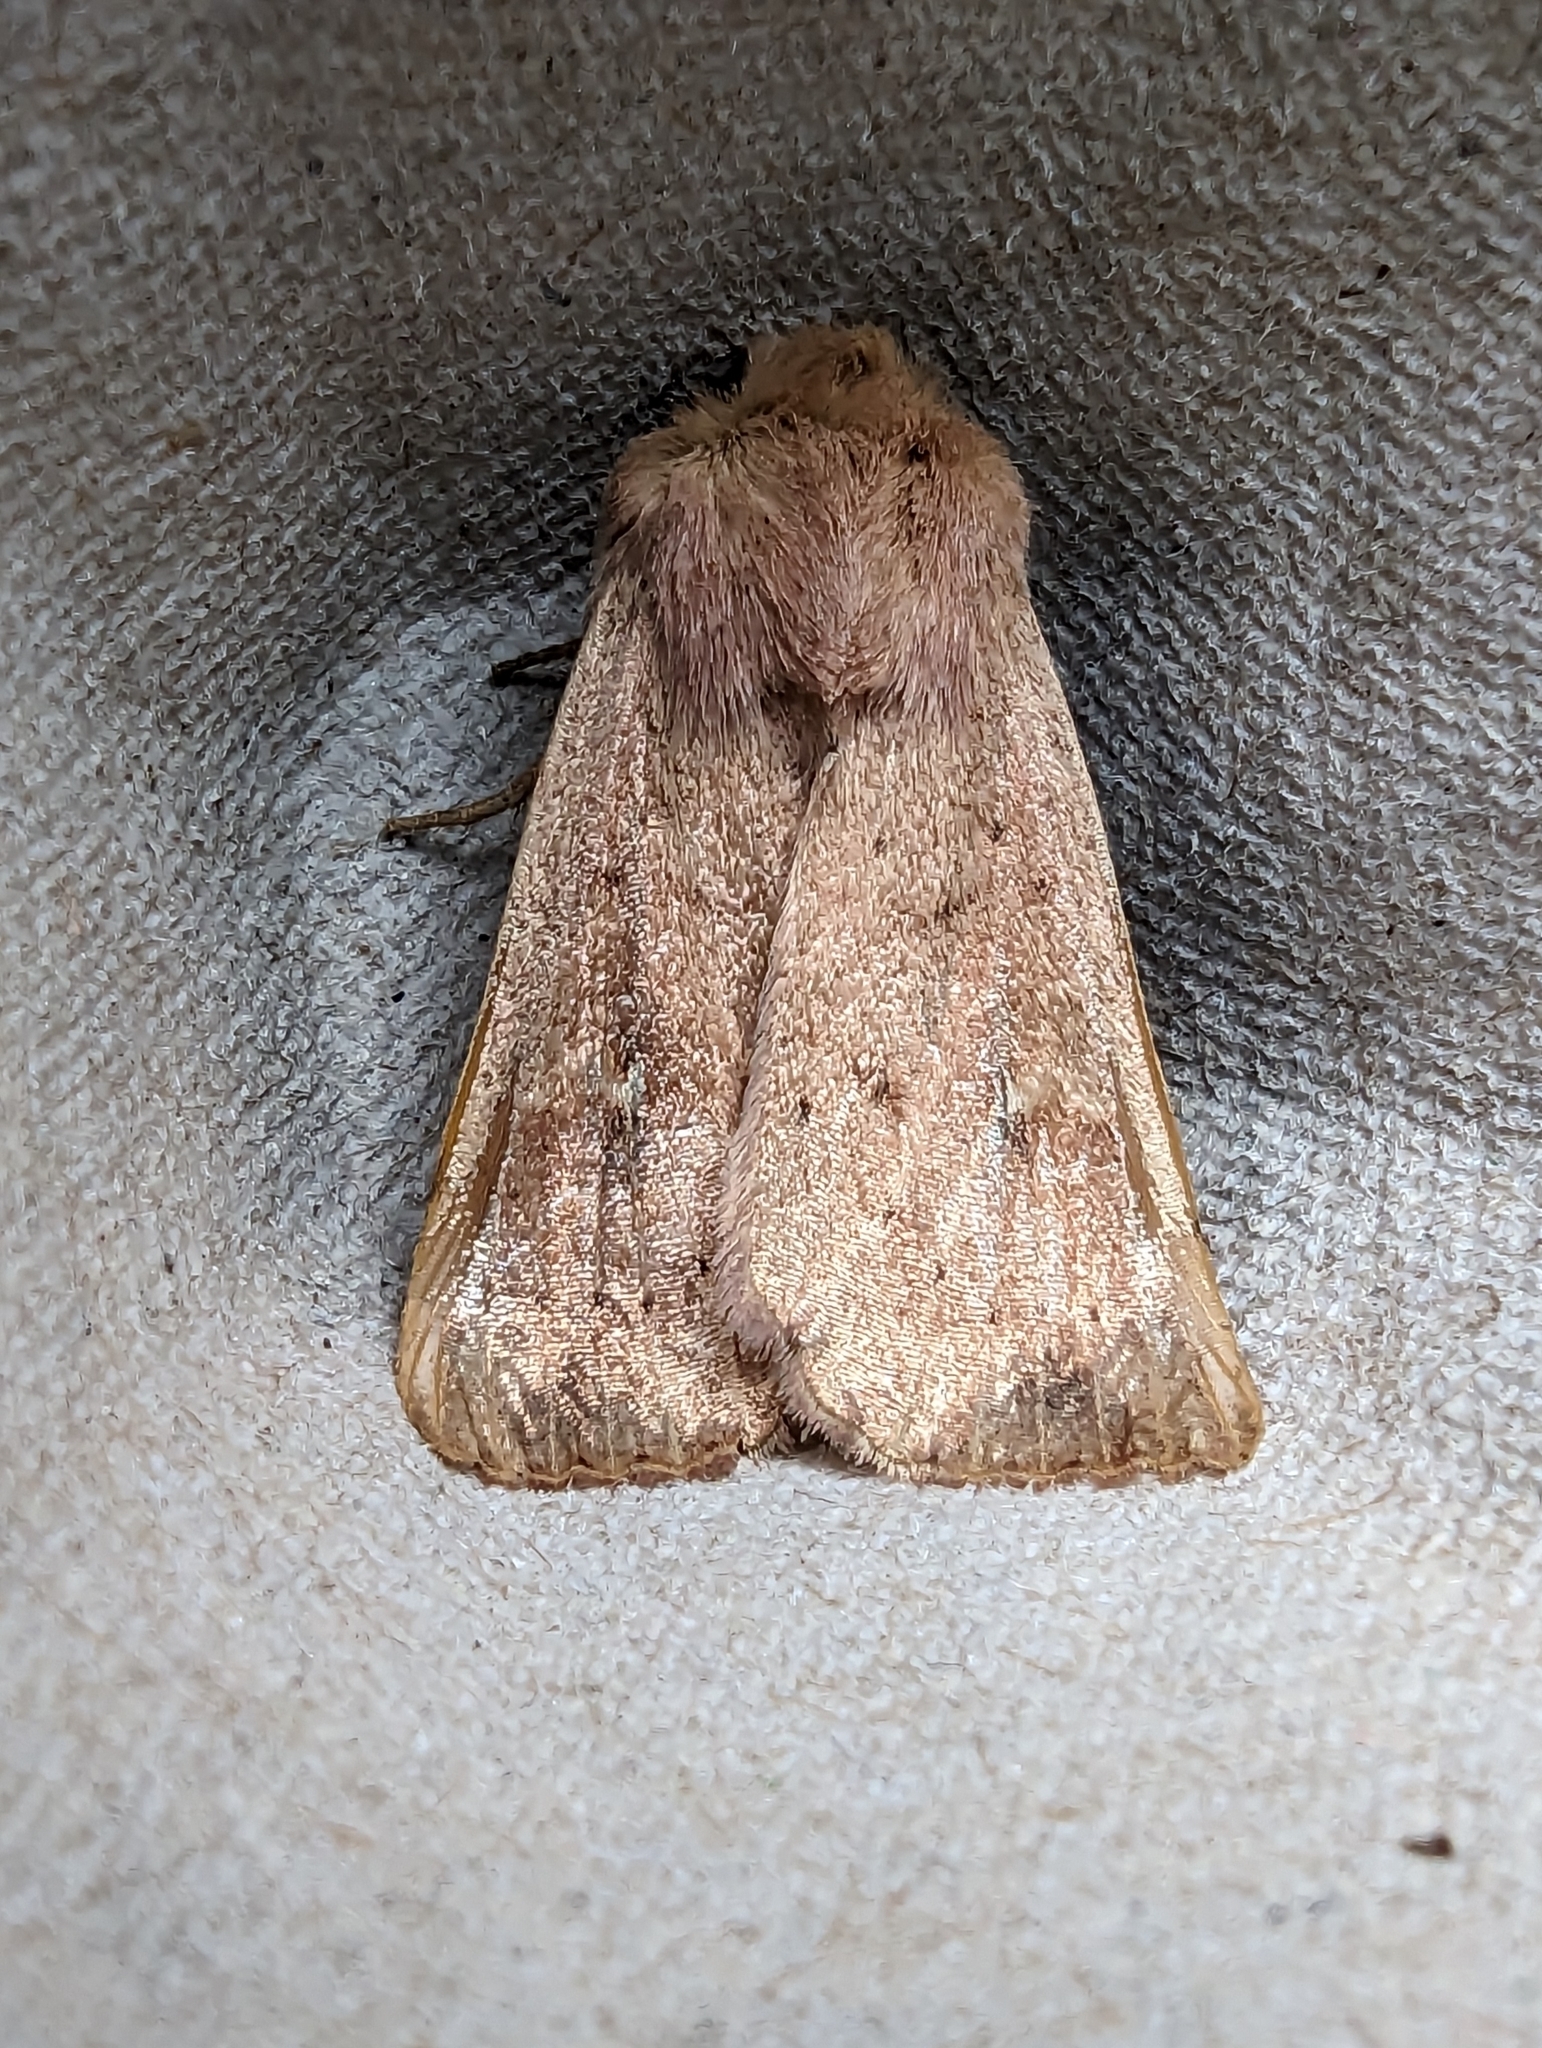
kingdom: Animalia
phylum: Arthropoda
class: Insecta
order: Lepidoptera
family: Noctuidae
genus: Mythimna
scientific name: Mythimna ferrago
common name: Clay
